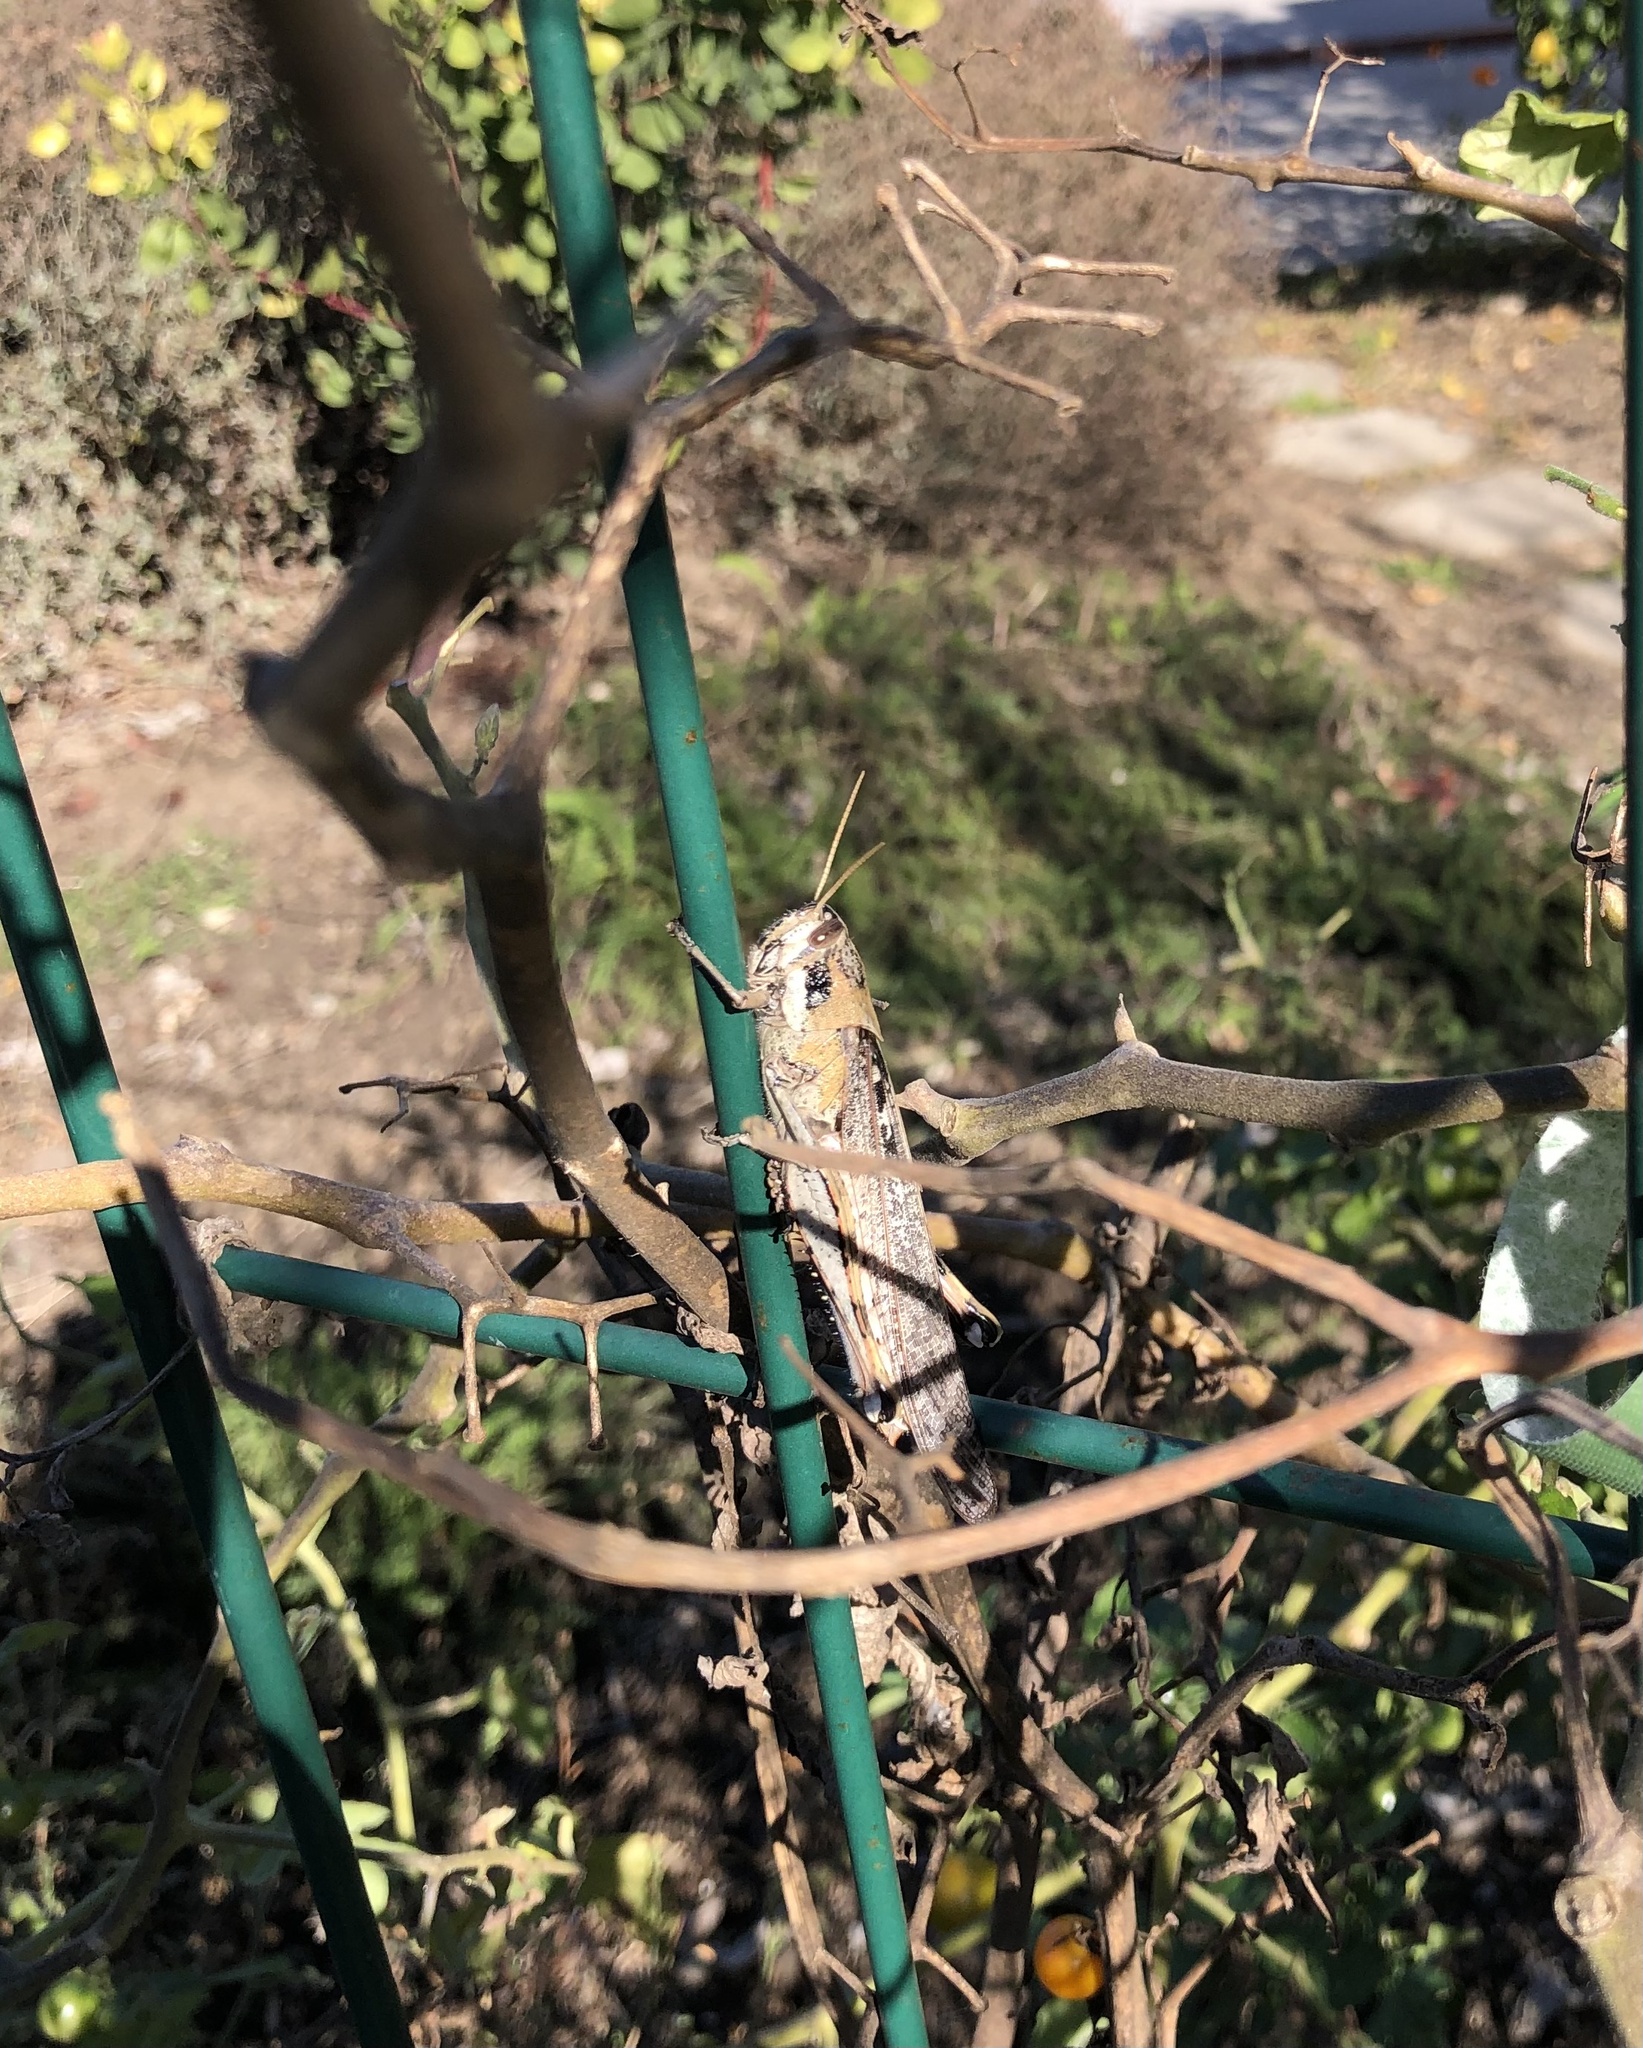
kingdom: Animalia
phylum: Arthropoda
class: Insecta
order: Orthoptera
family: Acrididae
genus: Schistocerca
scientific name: Schistocerca nitens
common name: Vagrant grasshopper
